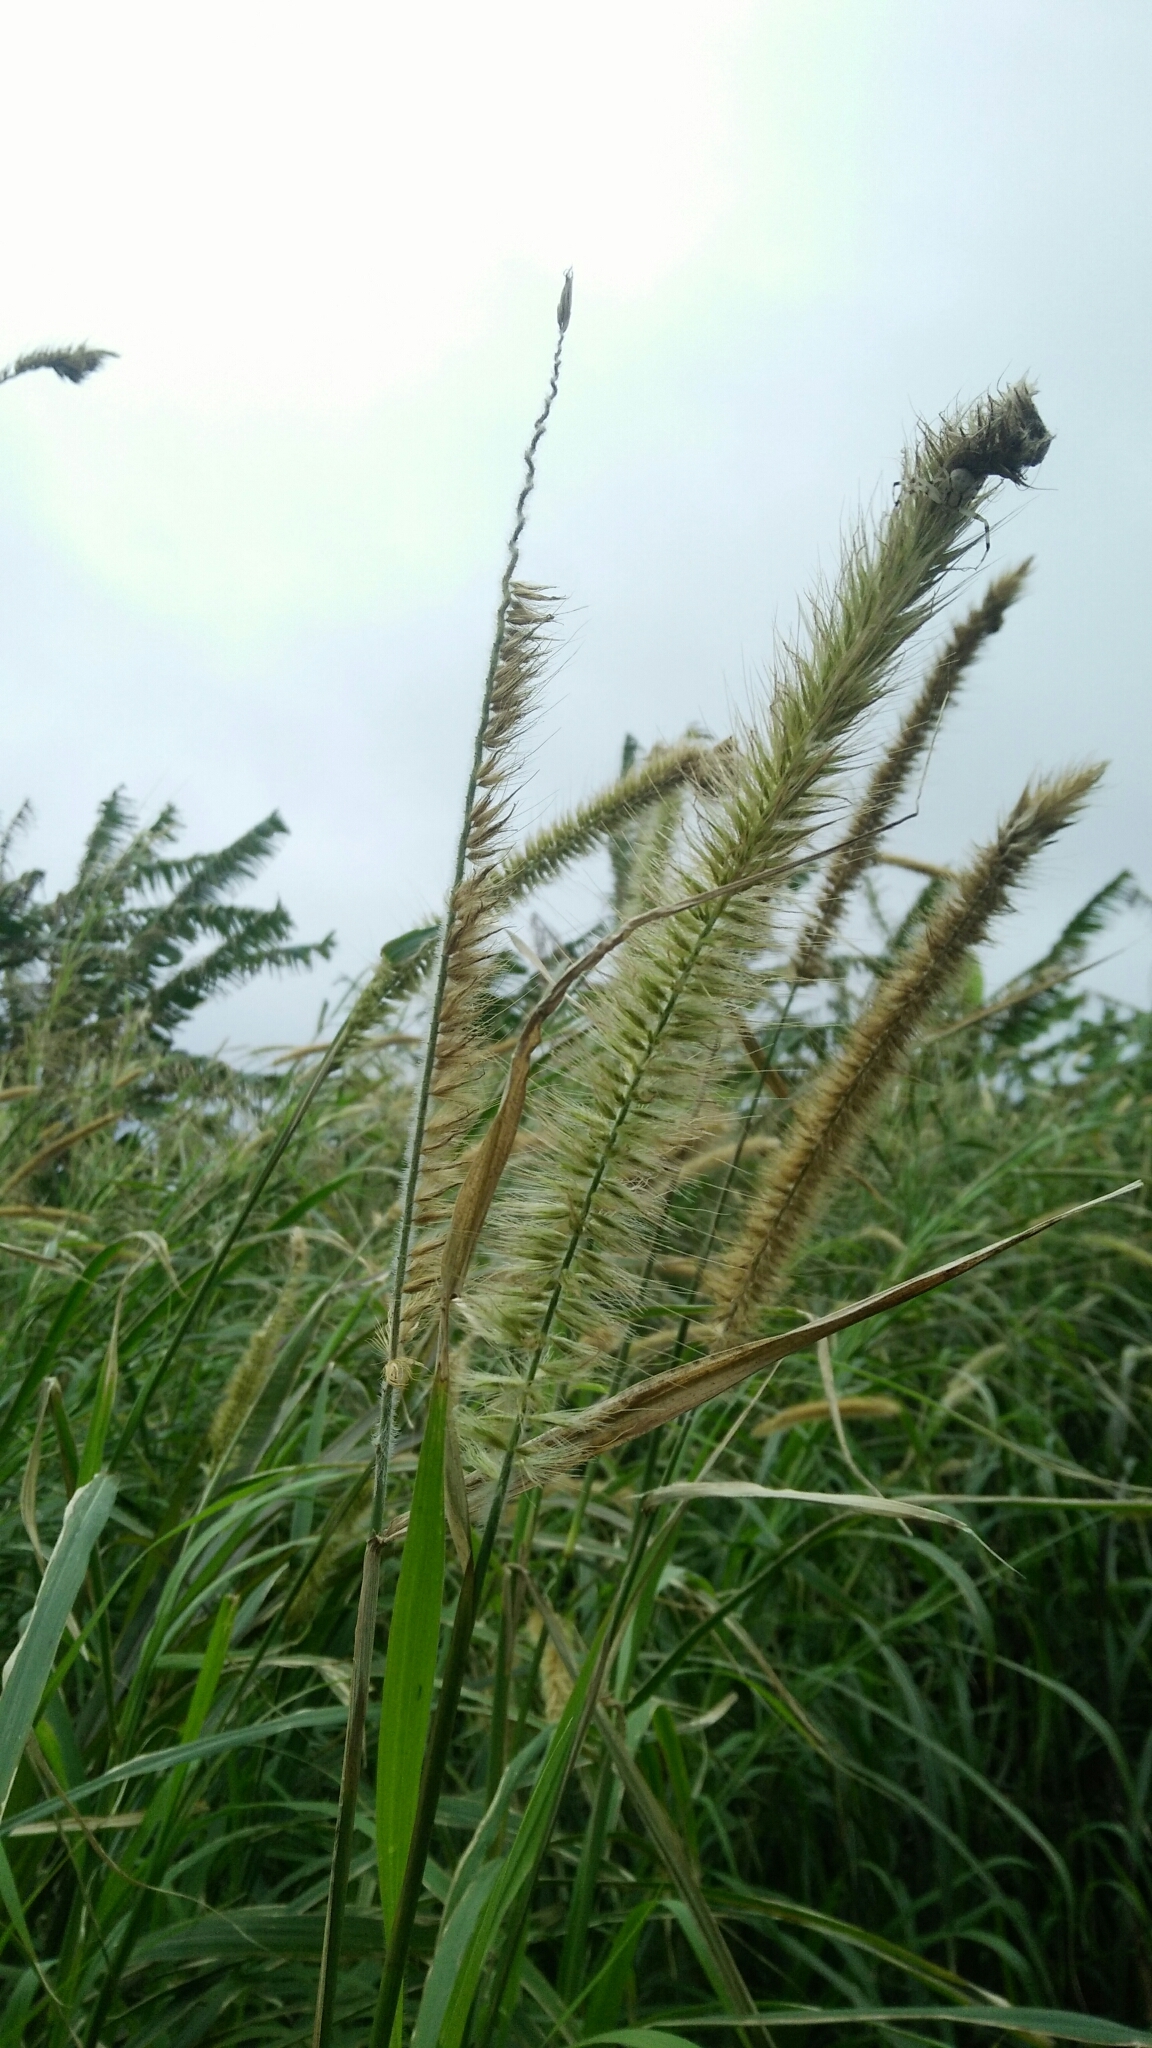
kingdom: Plantae
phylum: Tracheophyta
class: Liliopsida
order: Poales
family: Poaceae
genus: Cenchrus
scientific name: Cenchrus purpureus
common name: Elephant grass
